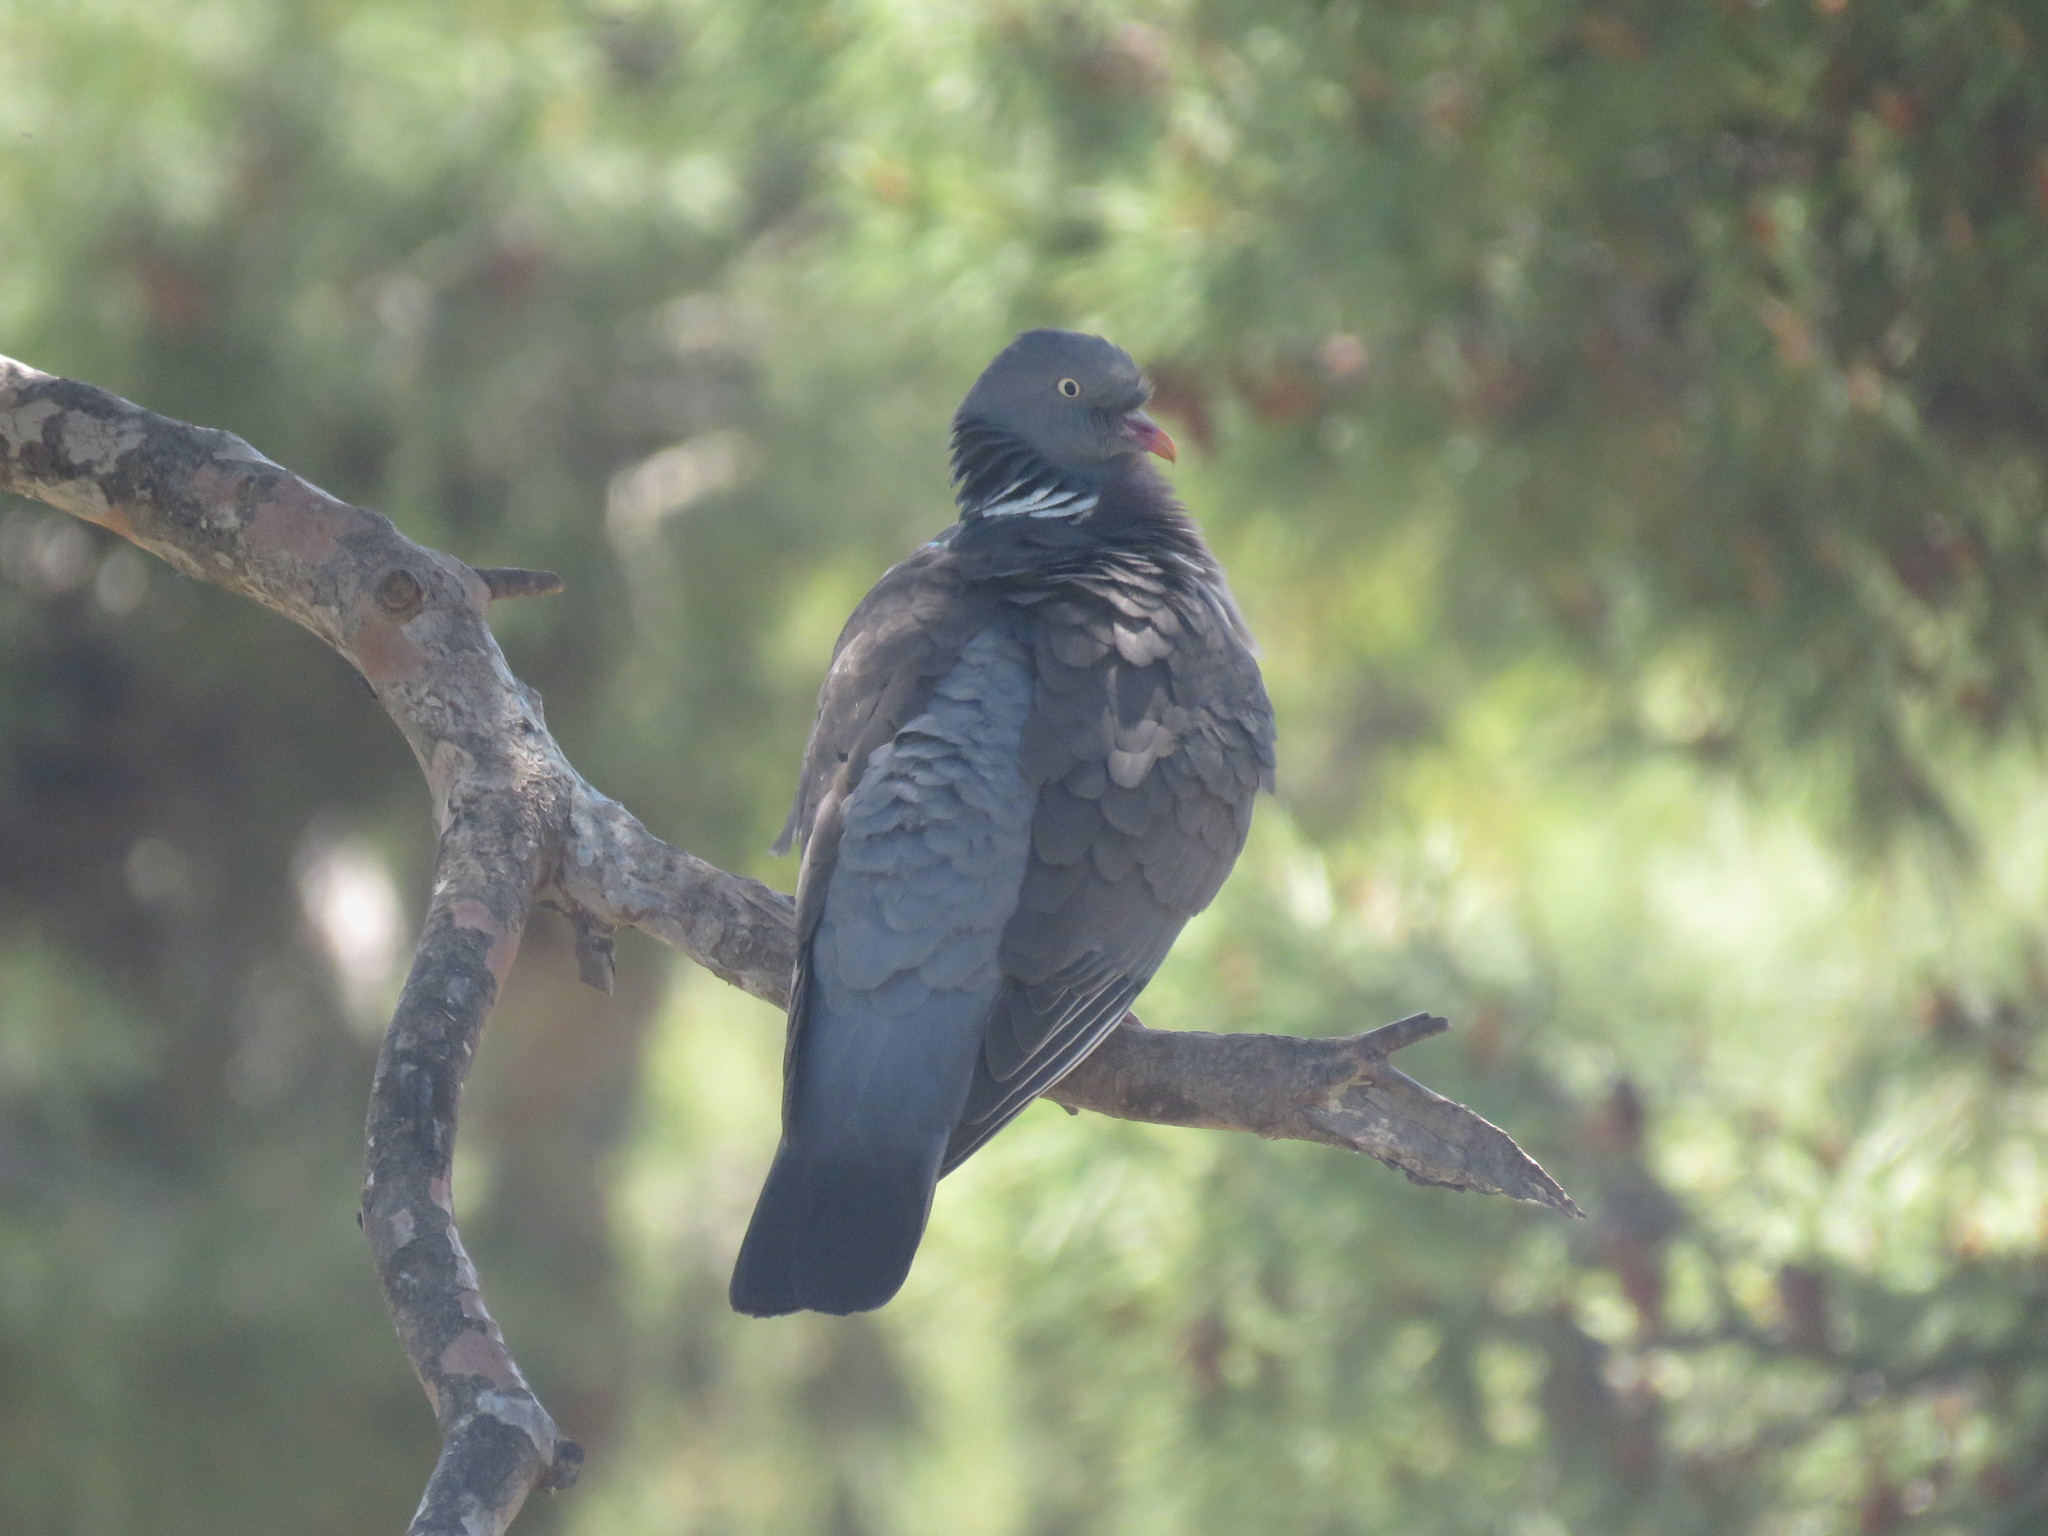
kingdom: Animalia
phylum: Chordata
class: Aves
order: Columbiformes
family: Columbidae
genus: Columba
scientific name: Columba palumbus
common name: Common wood pigeon
